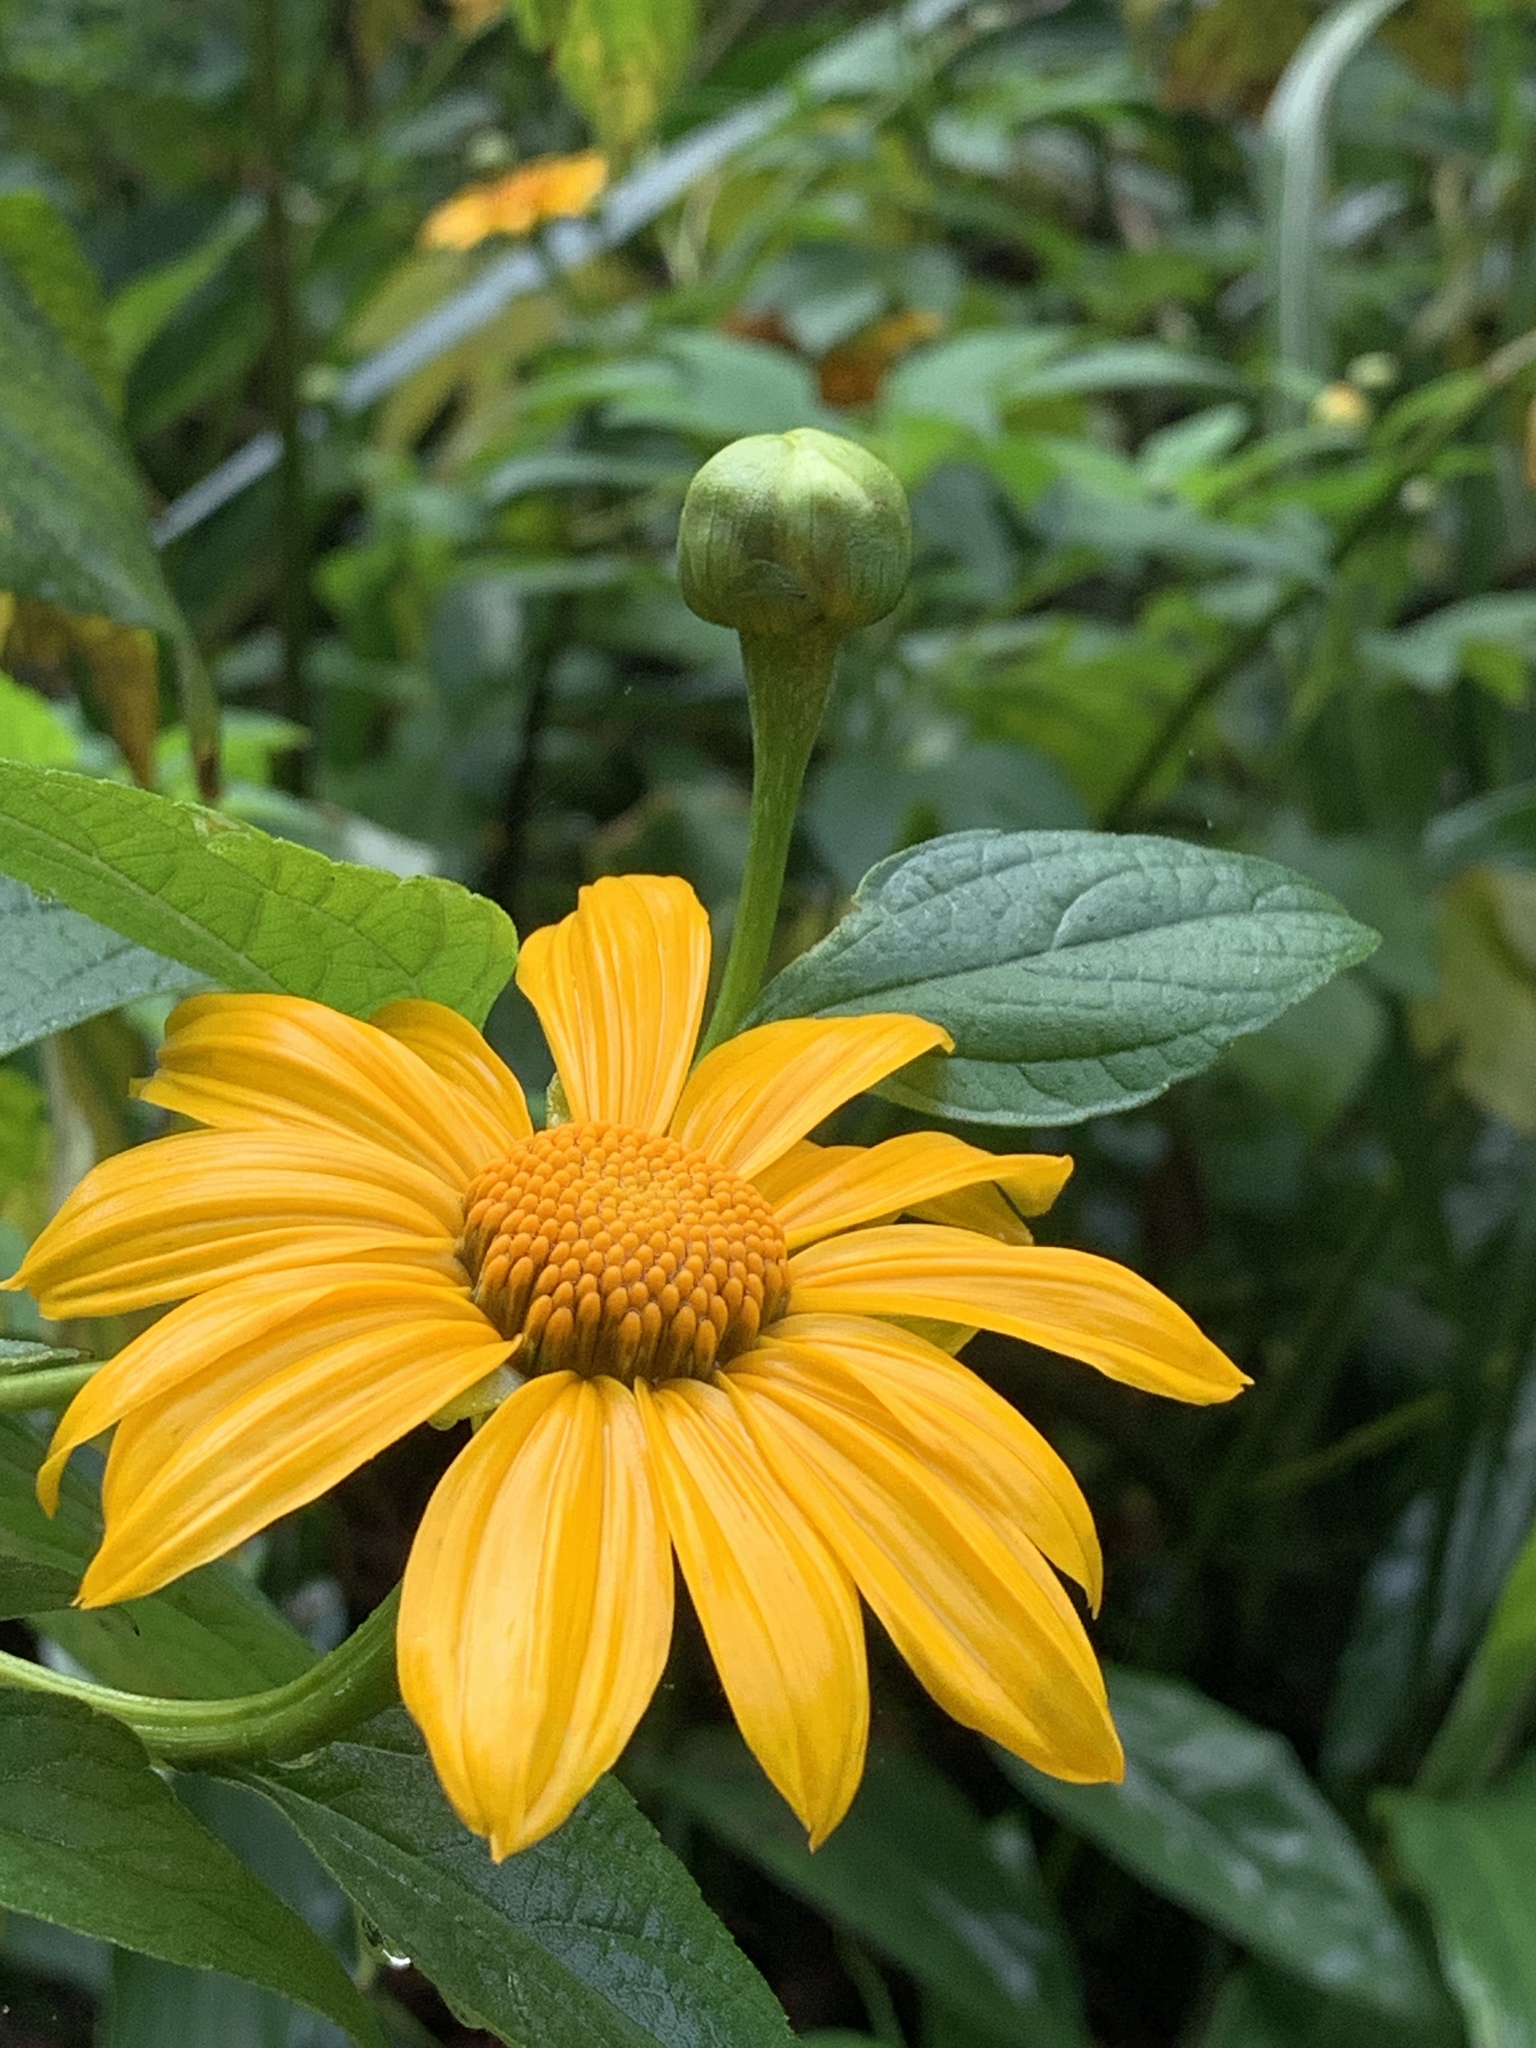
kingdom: Plantae
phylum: Tracheophyta
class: Magnoliopsida
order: Asterales
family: Asteraceae
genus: Tithonia
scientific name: Tithonia diversifolia
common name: Tree marigold
